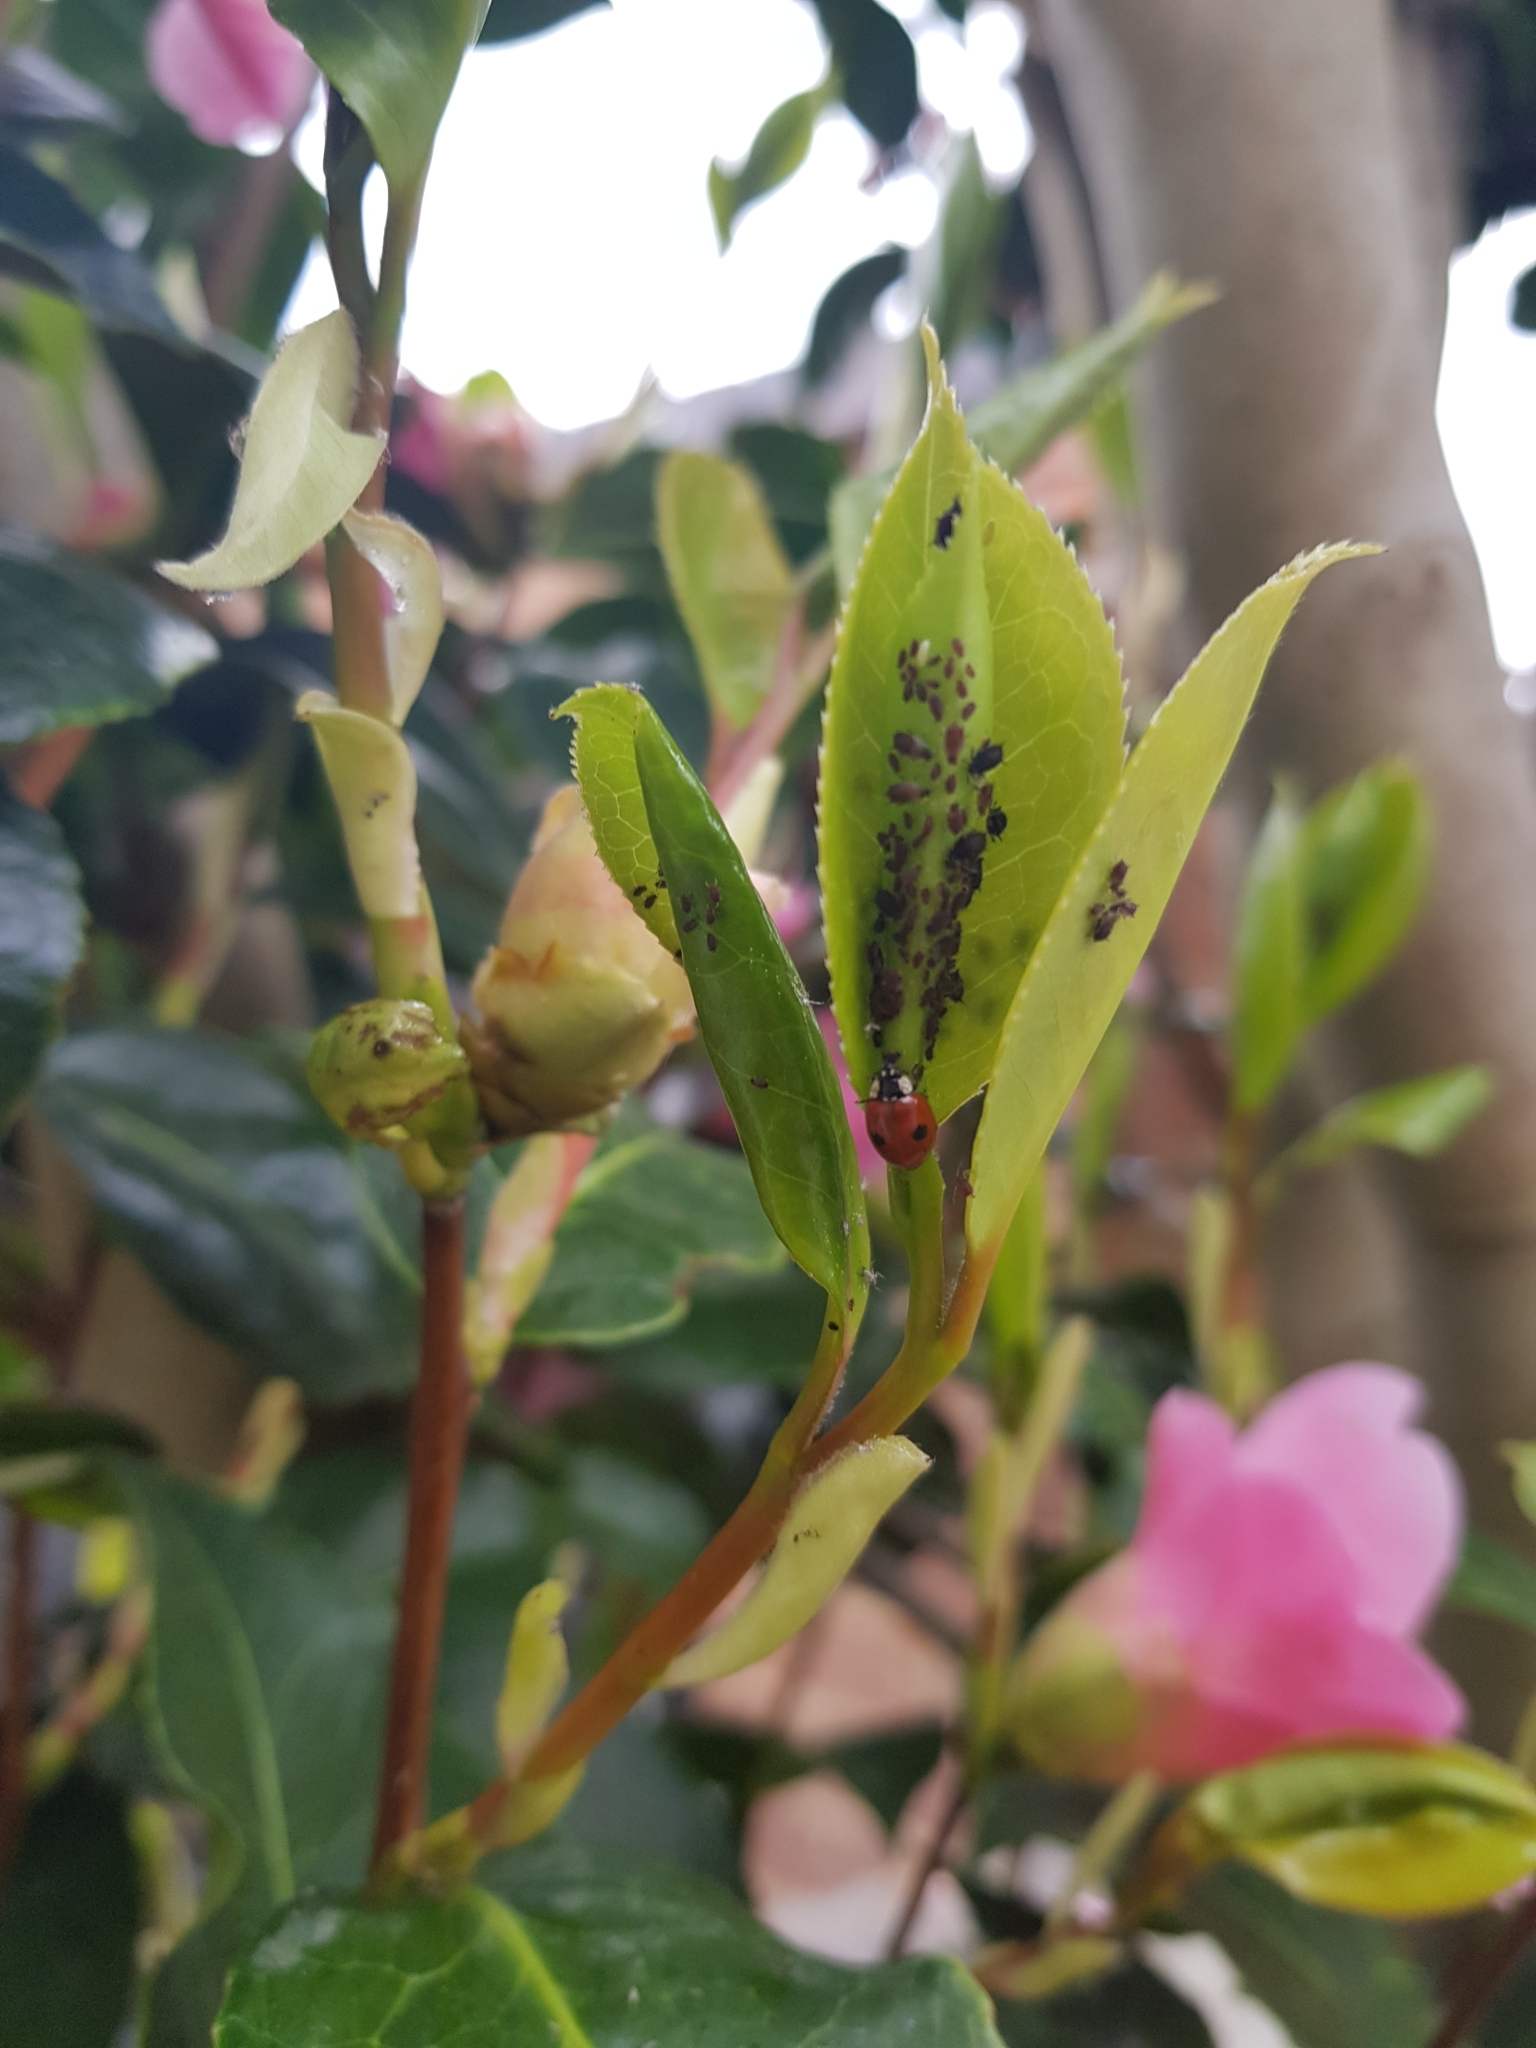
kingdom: Animalia
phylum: Arthropoda
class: Insecta
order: Coleoptera
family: Coccinellidae
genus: Adalia
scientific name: Adalia bipunctata
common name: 2-spot ladybird
